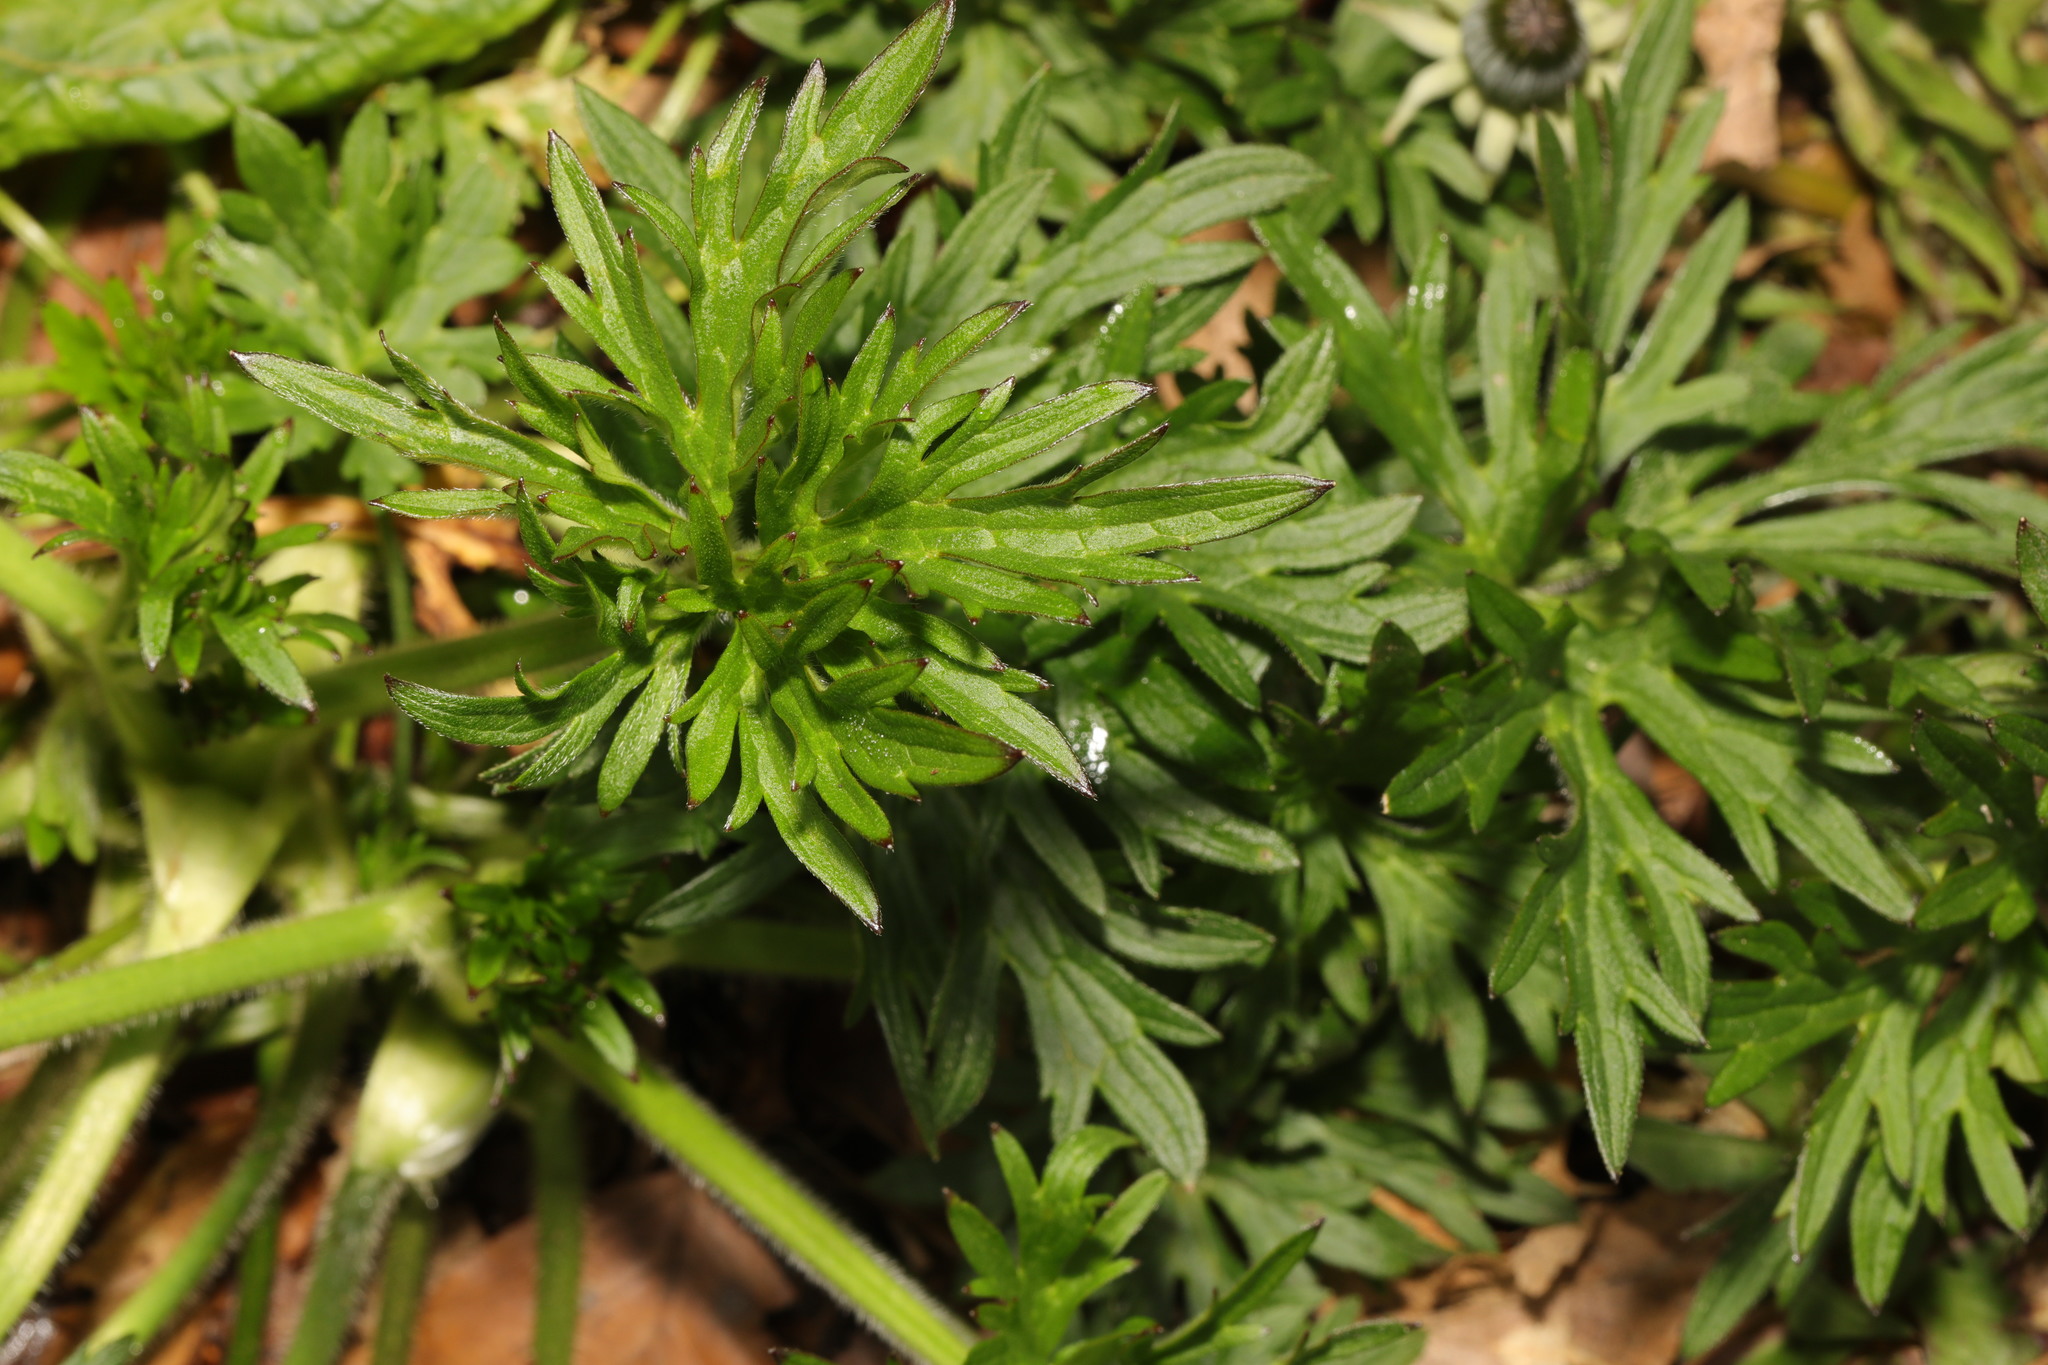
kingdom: Plantae
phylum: Tracheophyta
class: Magnoliopsida
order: Ranunculales
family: Ranunculaceae
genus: Ranunculus
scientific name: Ranunculus acris
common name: Meadow buttercup
